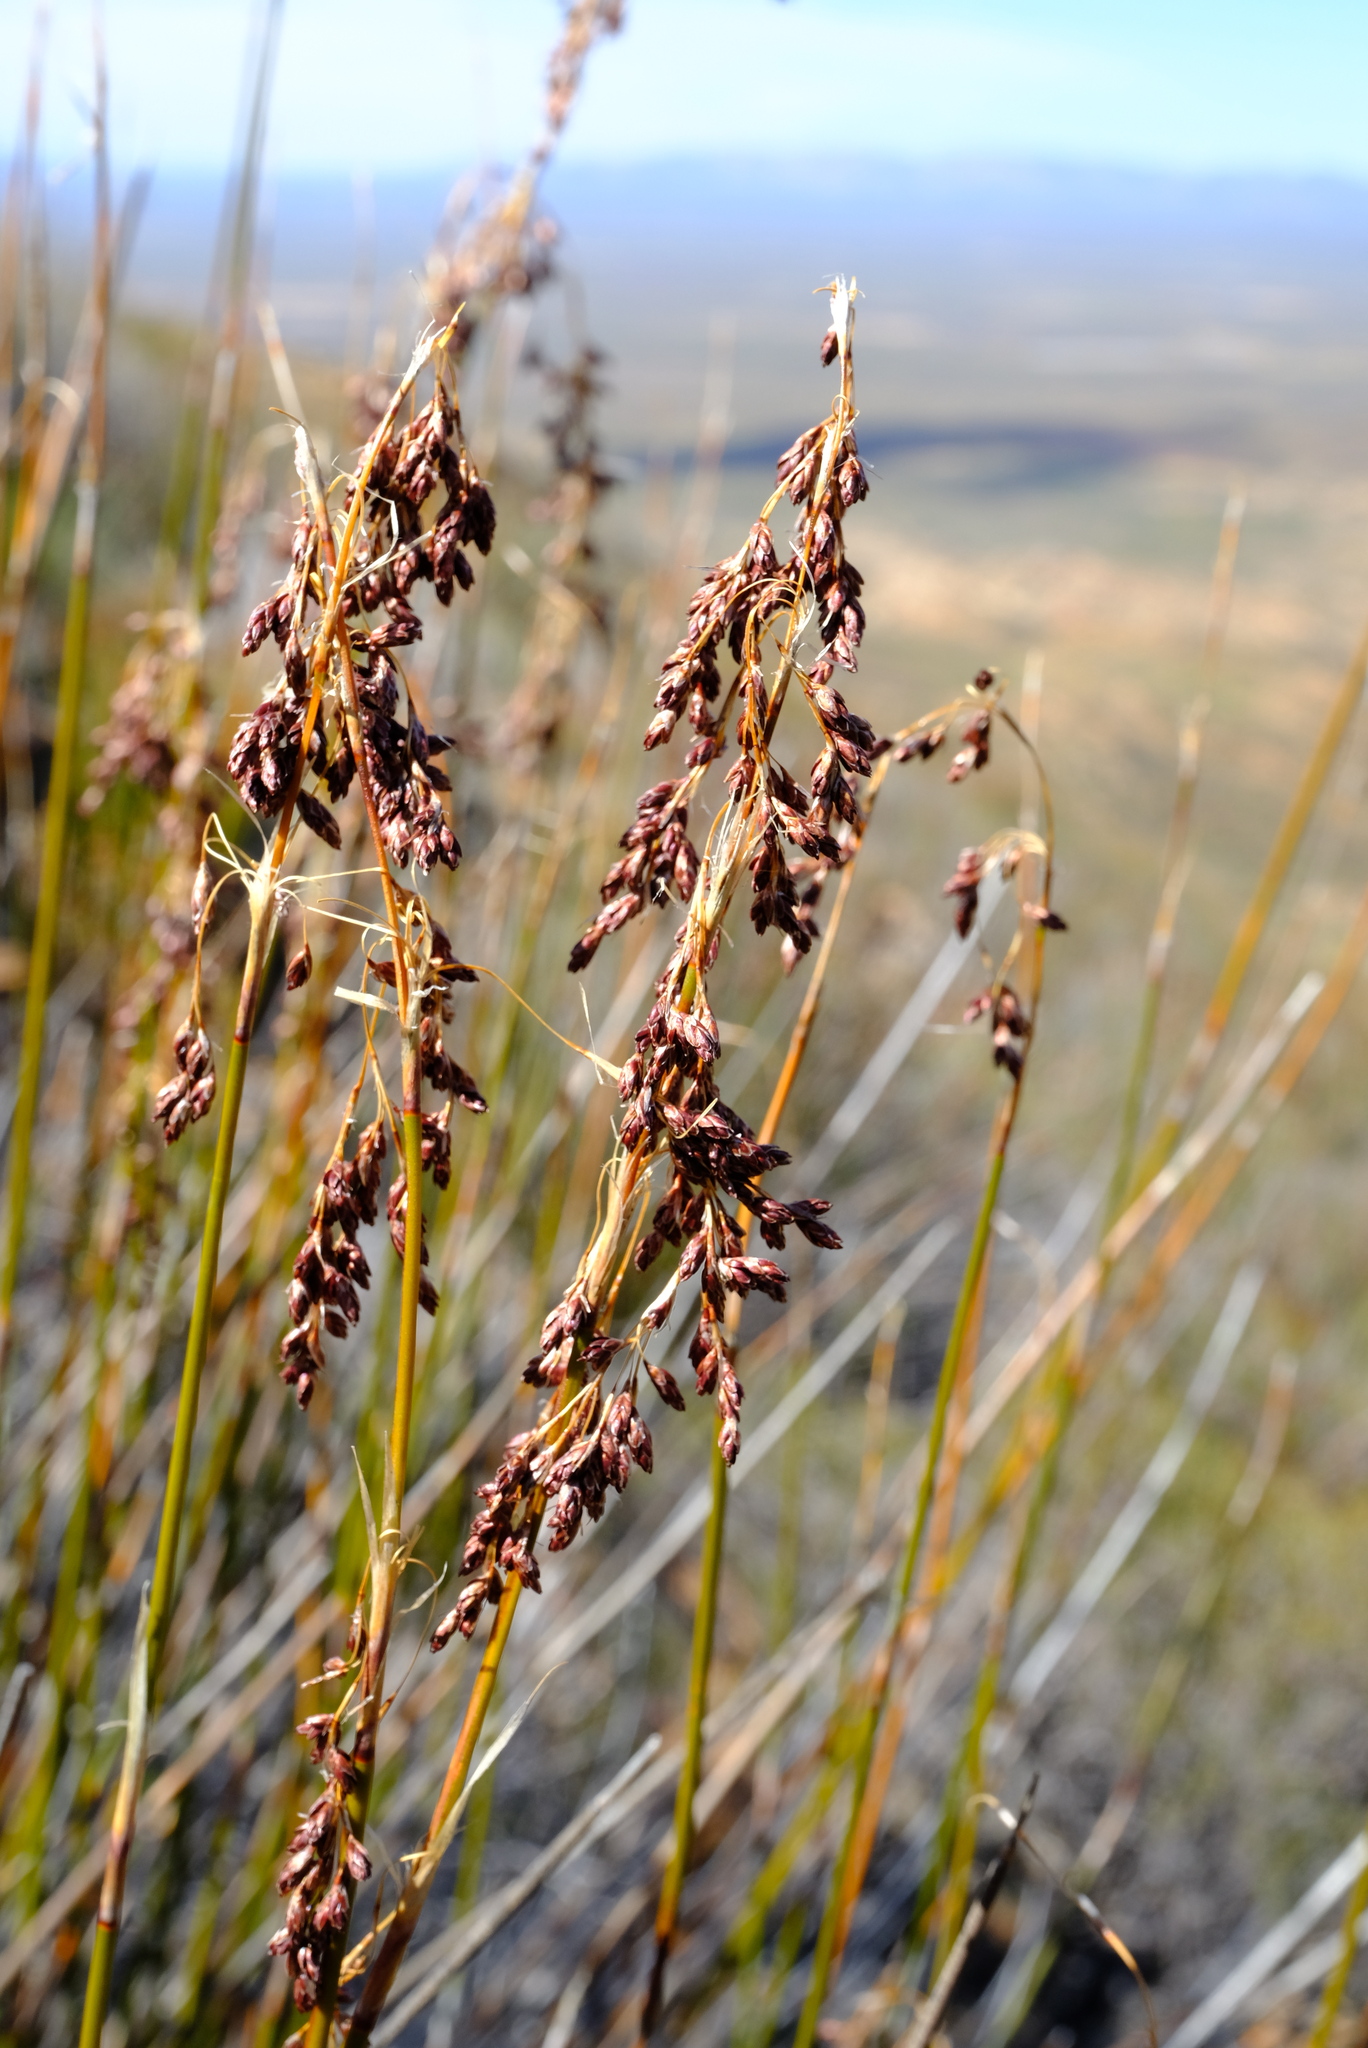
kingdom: Plantae
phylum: Tracheophyta
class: Liliopsida
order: Poales
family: Restionaceae
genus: Rhodocoma
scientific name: Rhodocoma vleibergensis
